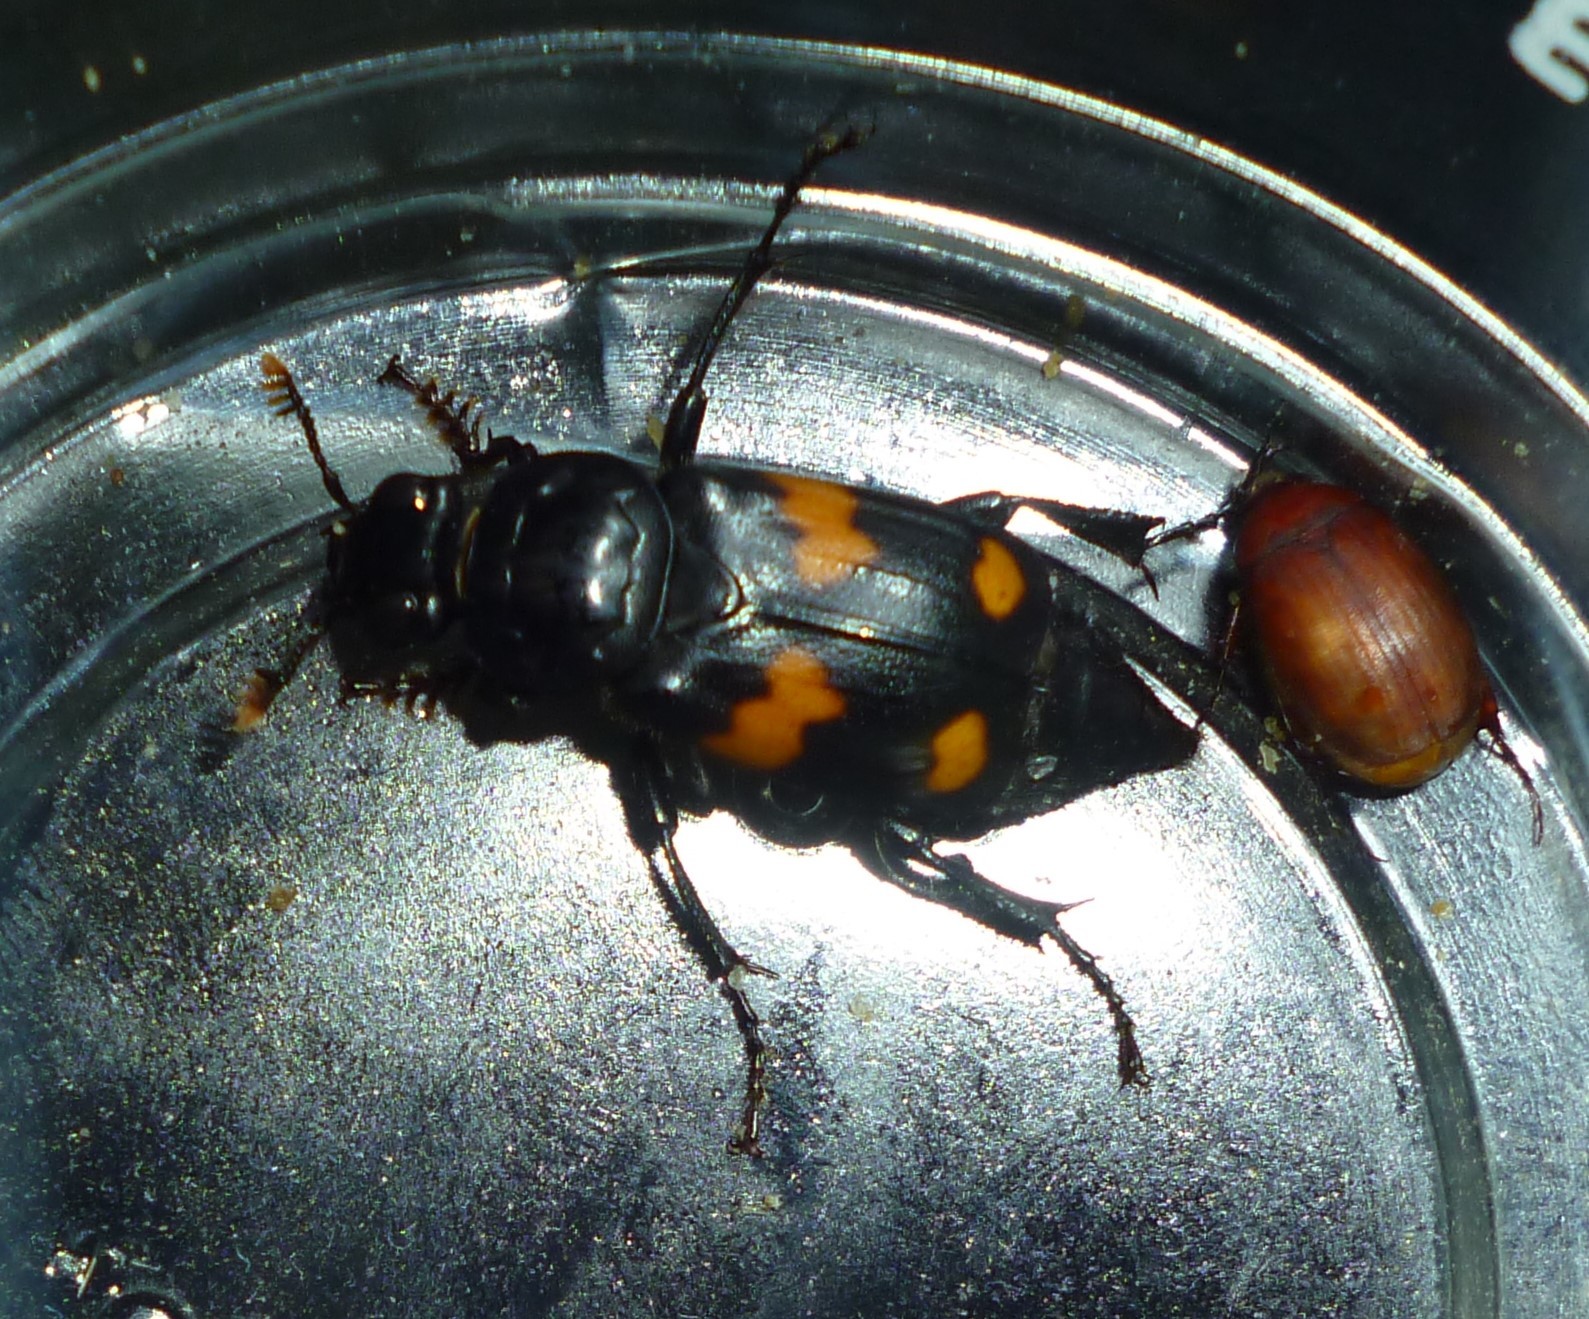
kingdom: Animalia
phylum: Arthropoda
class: Insecta
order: Coleoptera
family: Staphylinidae
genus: Nicrophorus
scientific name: Nicrophorus orbicollis
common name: Roundneck sexton beetle
